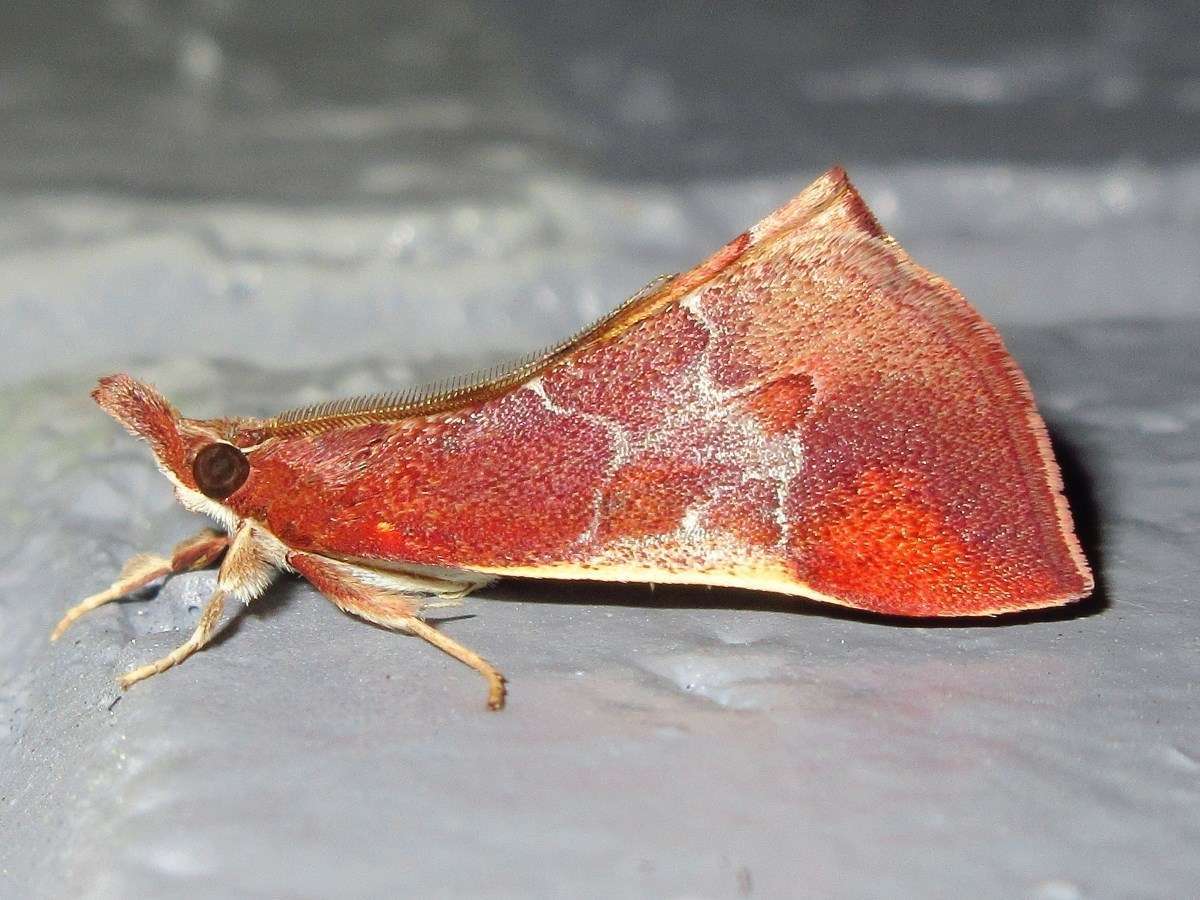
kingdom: Animalia
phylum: Arthropoda
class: Insecta
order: Lepidoptera
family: Pyralidae
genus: Anemosa
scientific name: Anemosa exanthes
